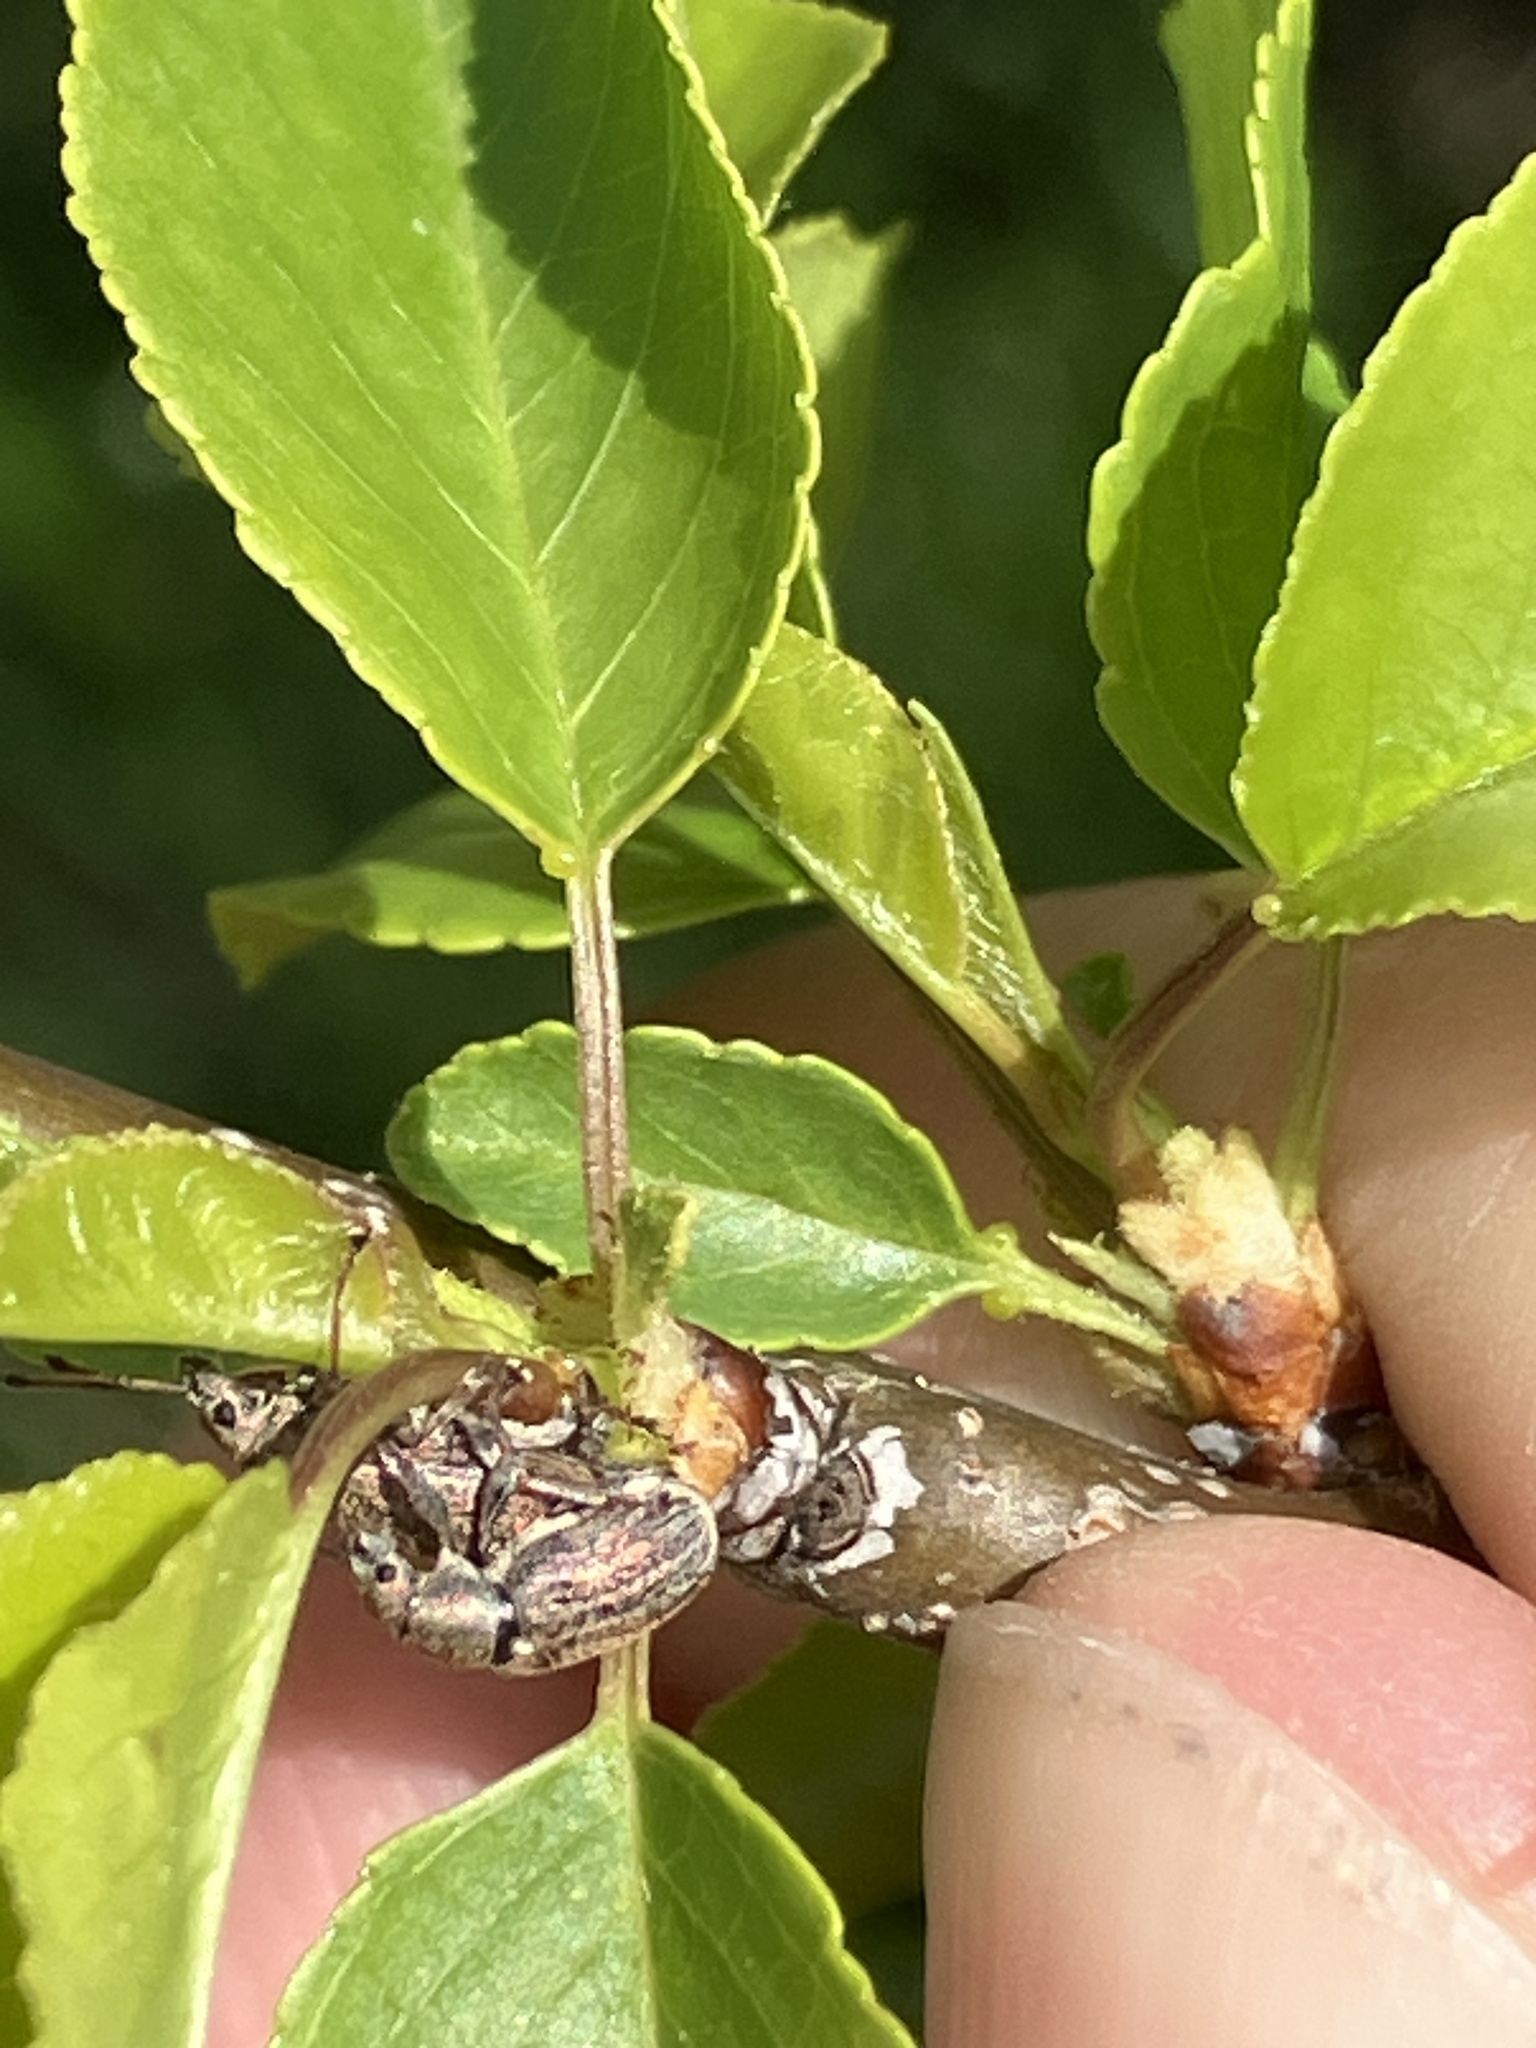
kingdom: Animalia
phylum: Arthropoda
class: Insecta
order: Coleoptera
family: Curculionidae
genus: Phyllobius
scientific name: Phyllobius pyri
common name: Common leaf weevil
